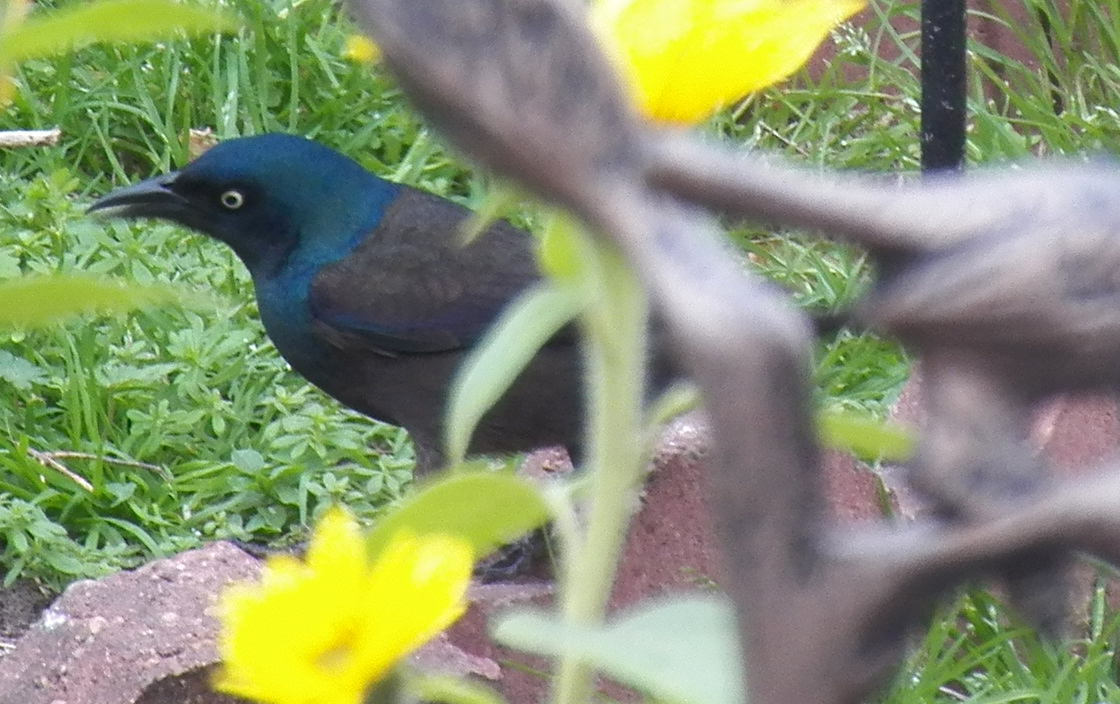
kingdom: Animalia
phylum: Chordata
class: Aves
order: Passeriformes
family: Icteridae
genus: Quiscalus
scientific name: Quiscalus quiscula
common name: Common grackle
